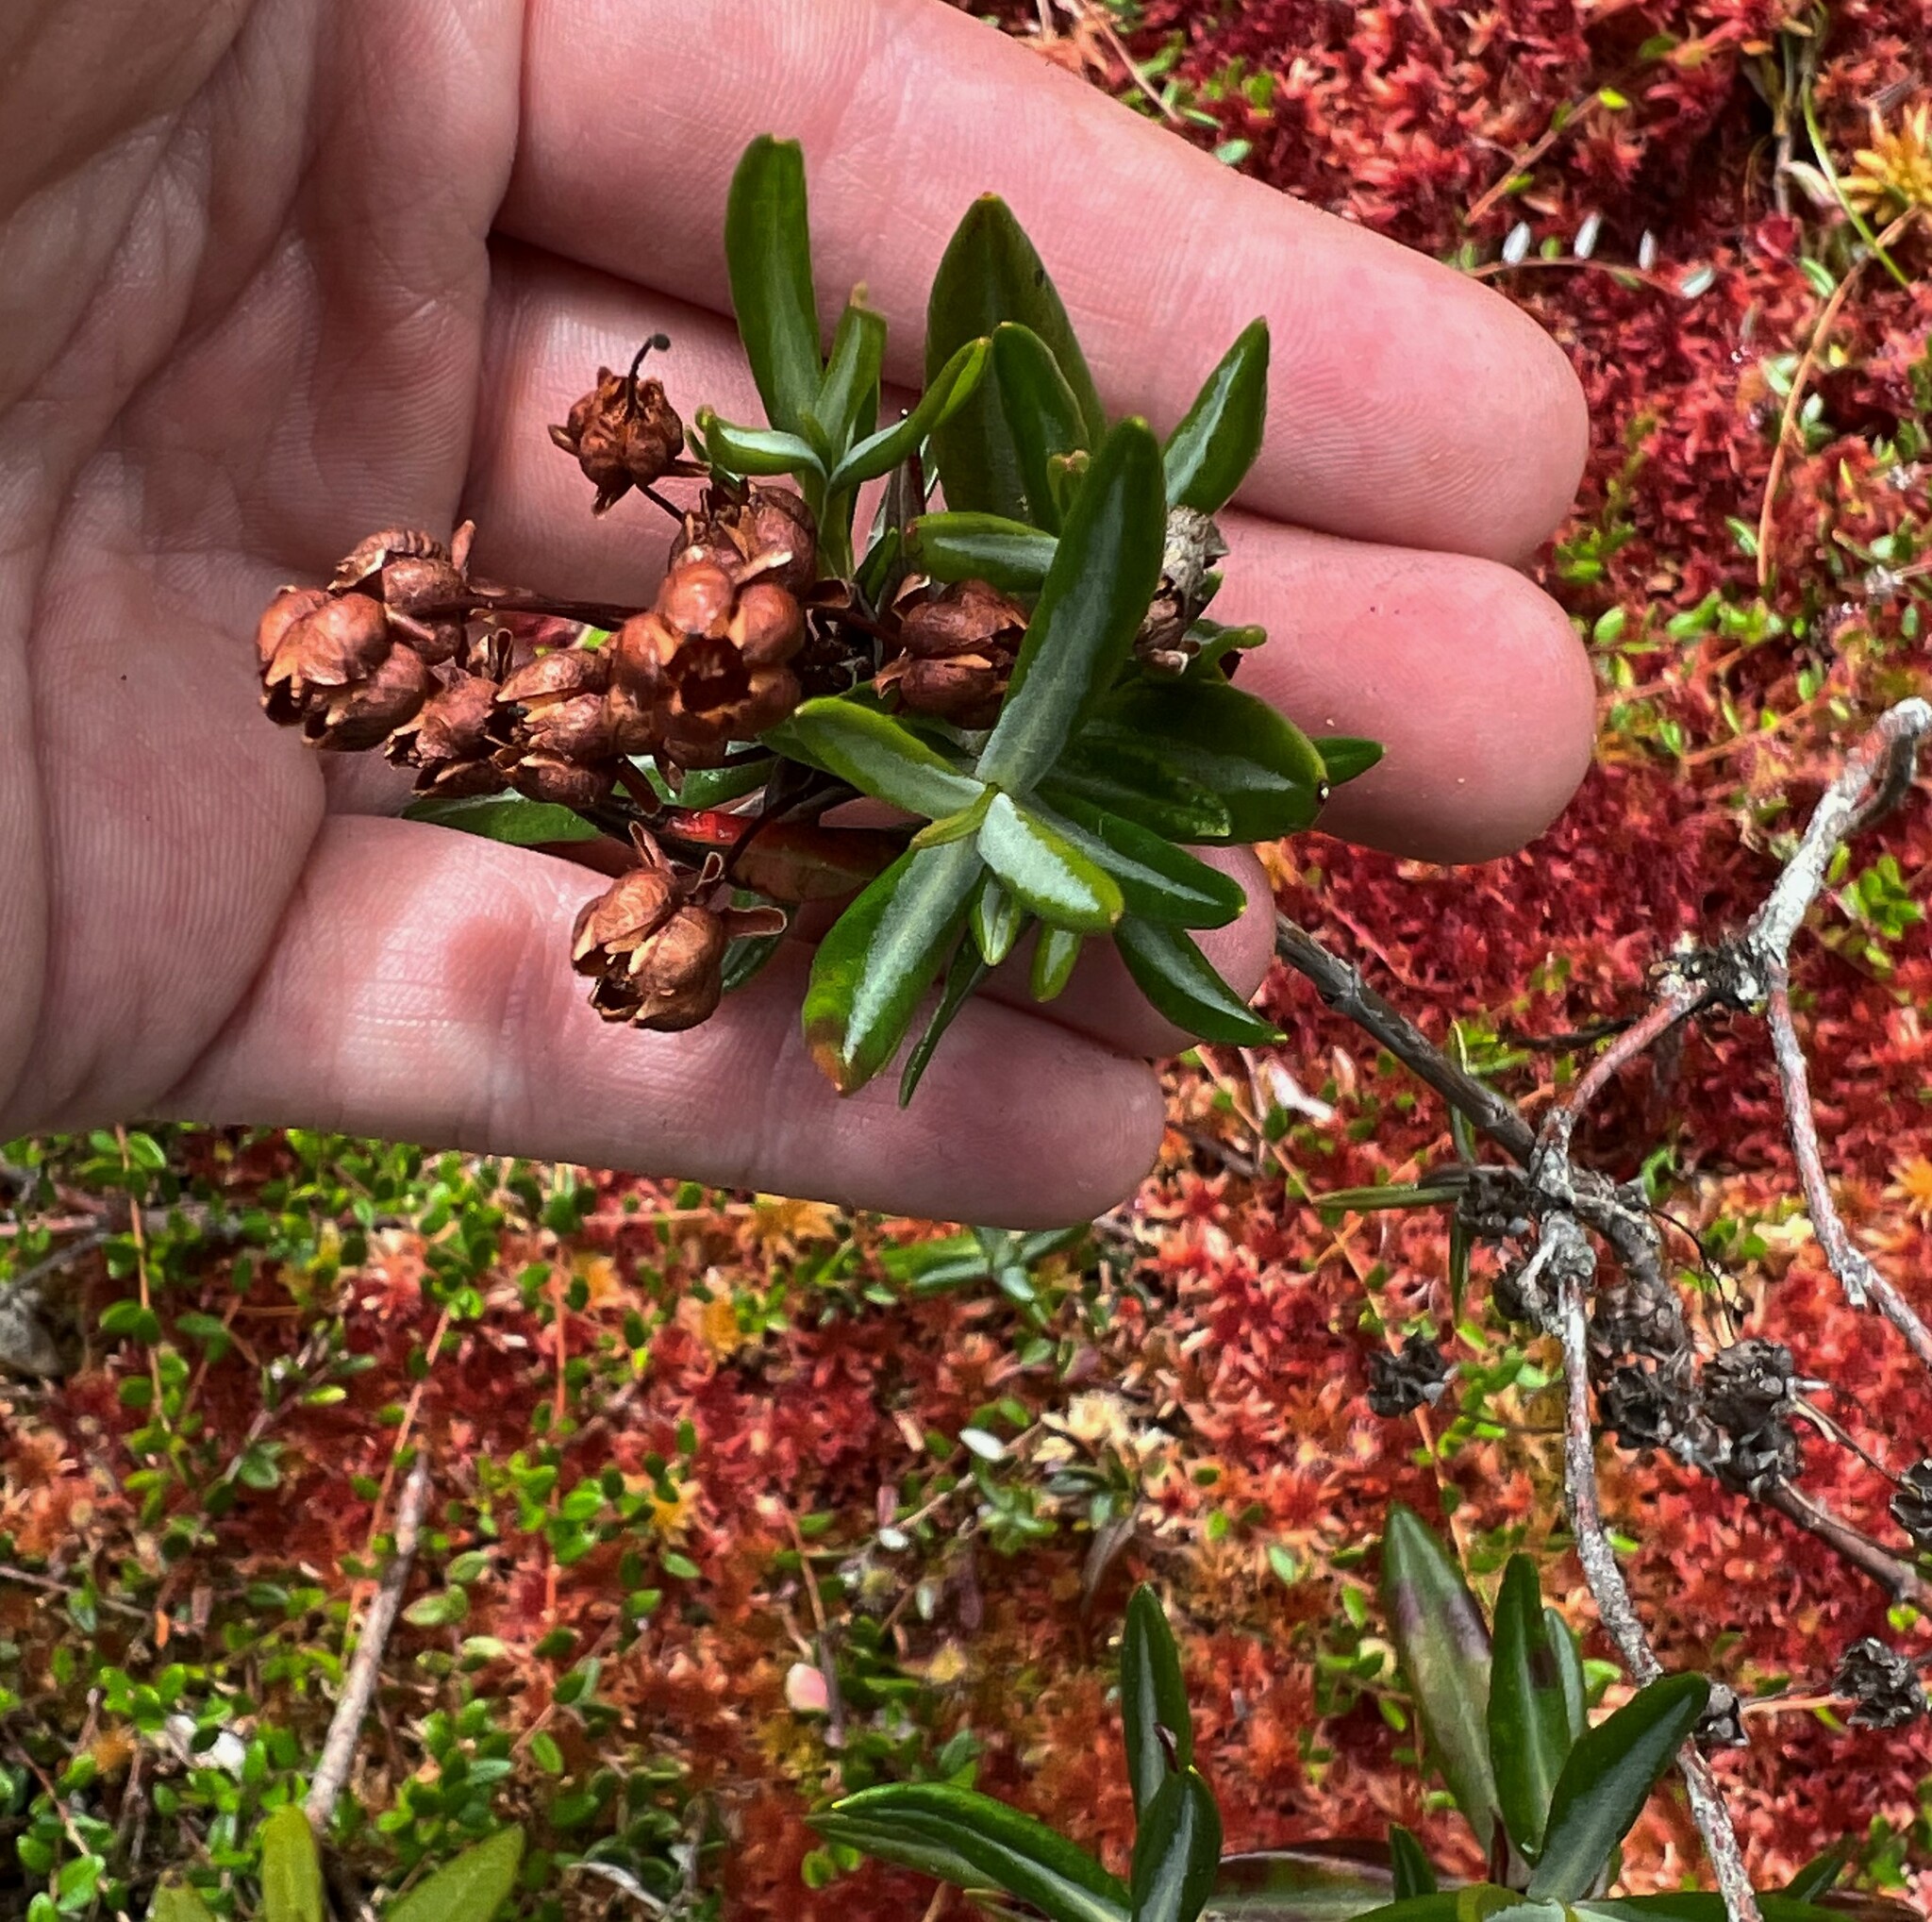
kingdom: Plantae
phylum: Tracheophyta
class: Magnoliopsida
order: Ericales
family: Ericaceae
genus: Kalmia
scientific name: Kalmia microphylla
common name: Alpine bog laurel
